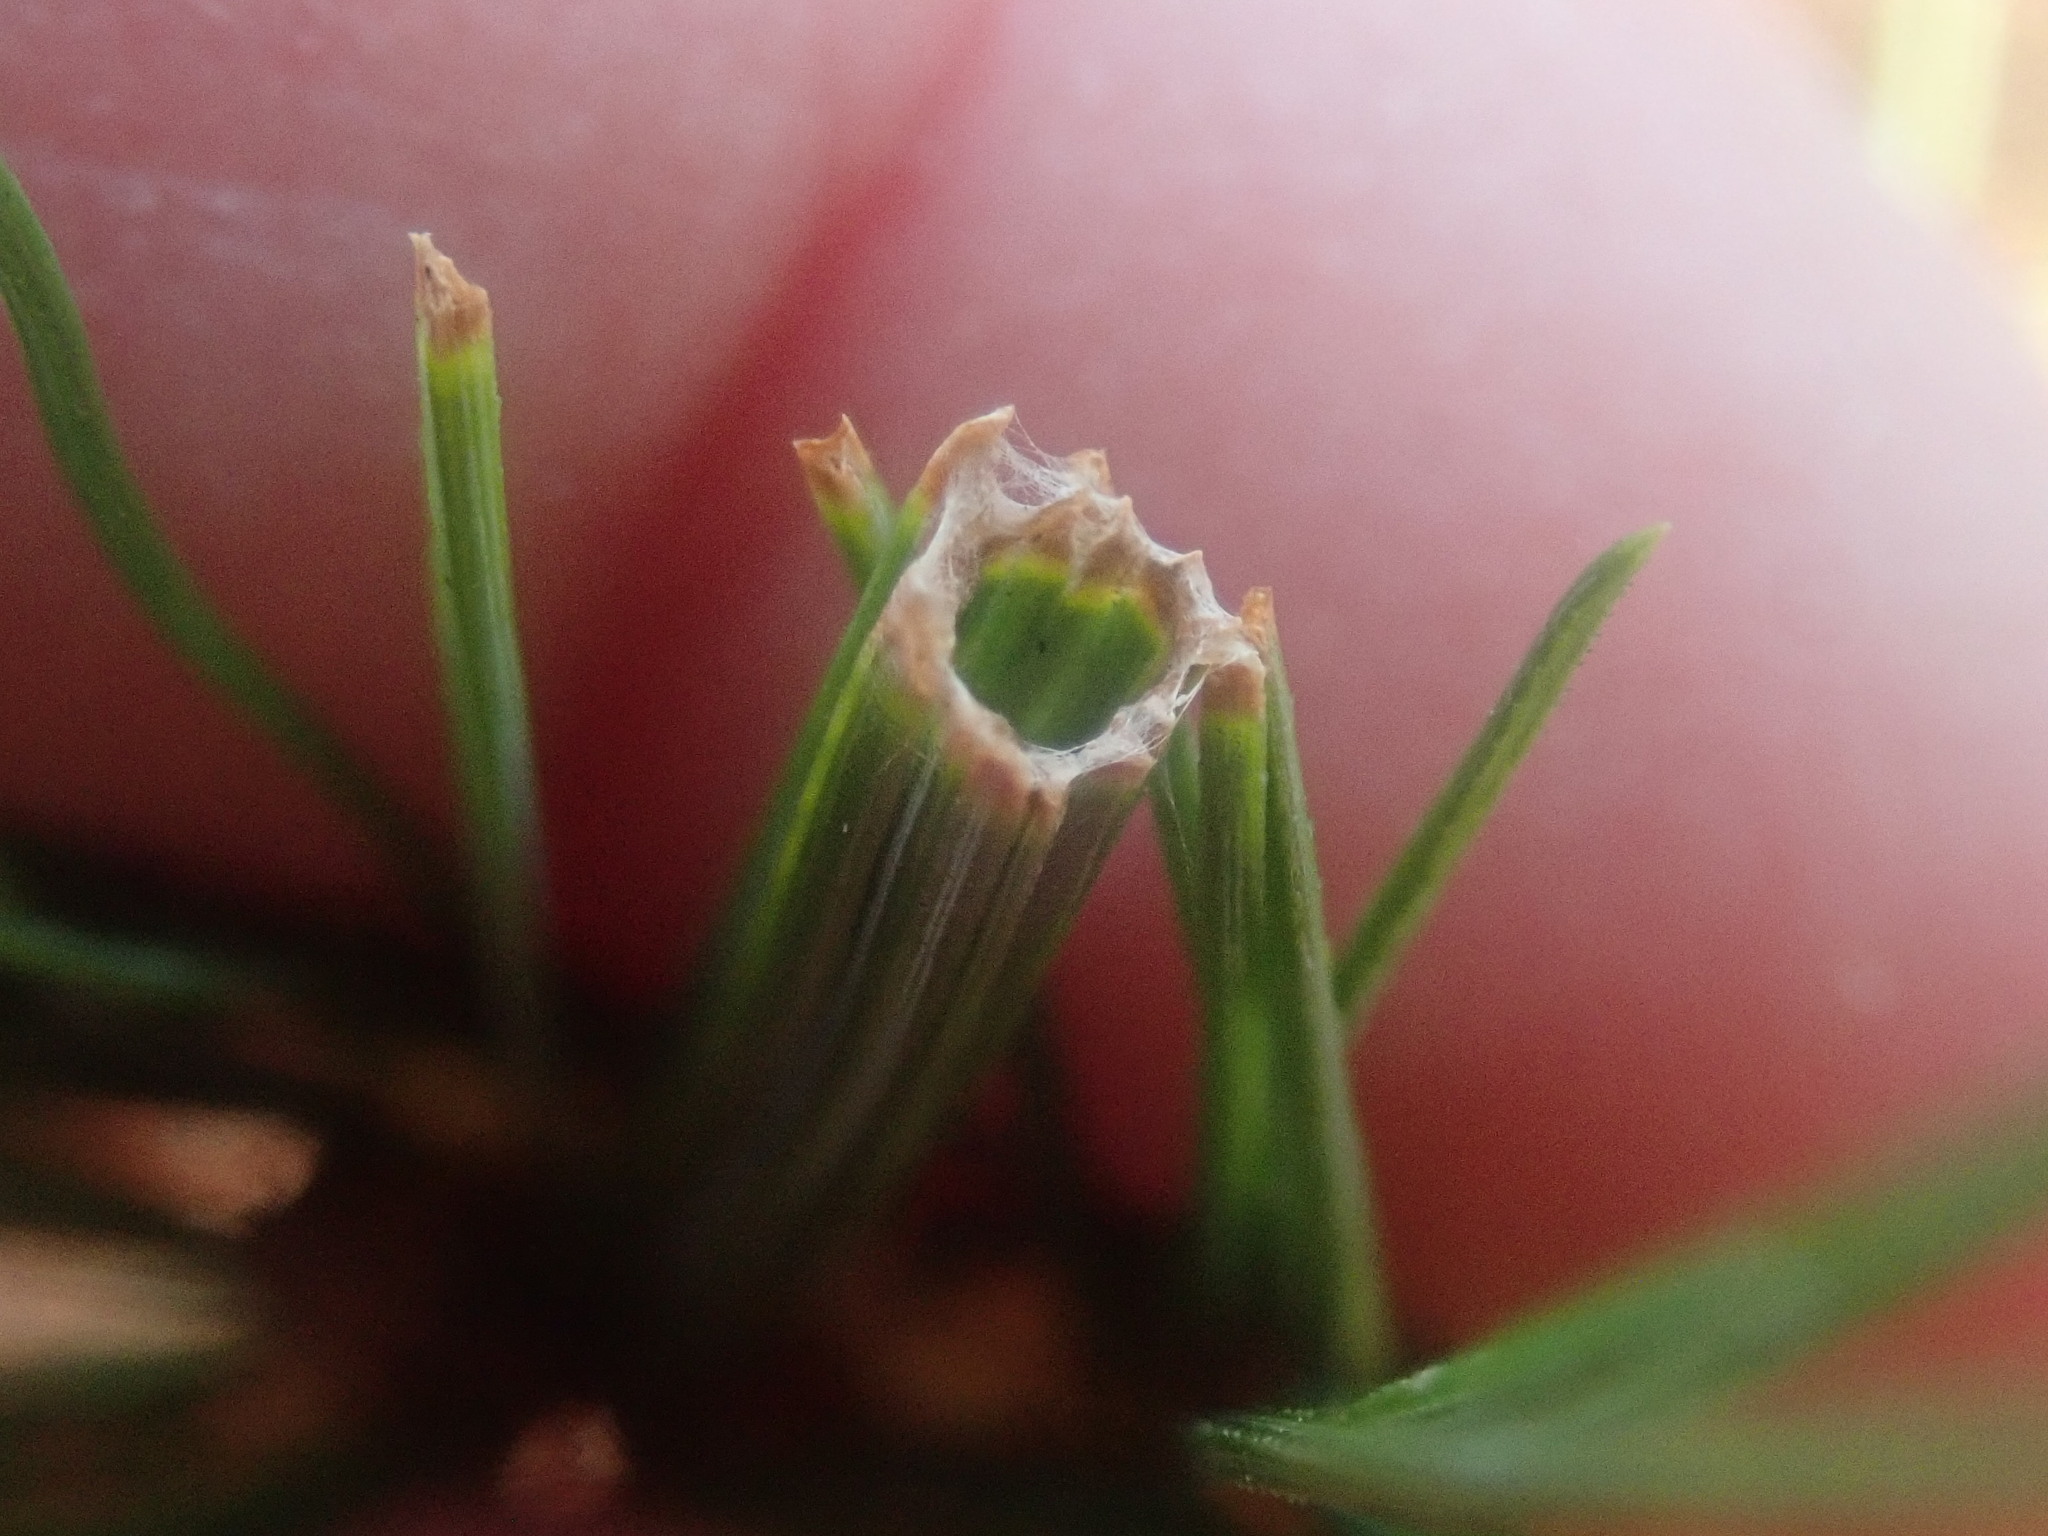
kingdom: Animalia
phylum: Arthropoda
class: Insecta
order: Lepidoptera
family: Tortricidae
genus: Argyrotaenia
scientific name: Argyrotaenia pinatubana
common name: Pine tube moth
